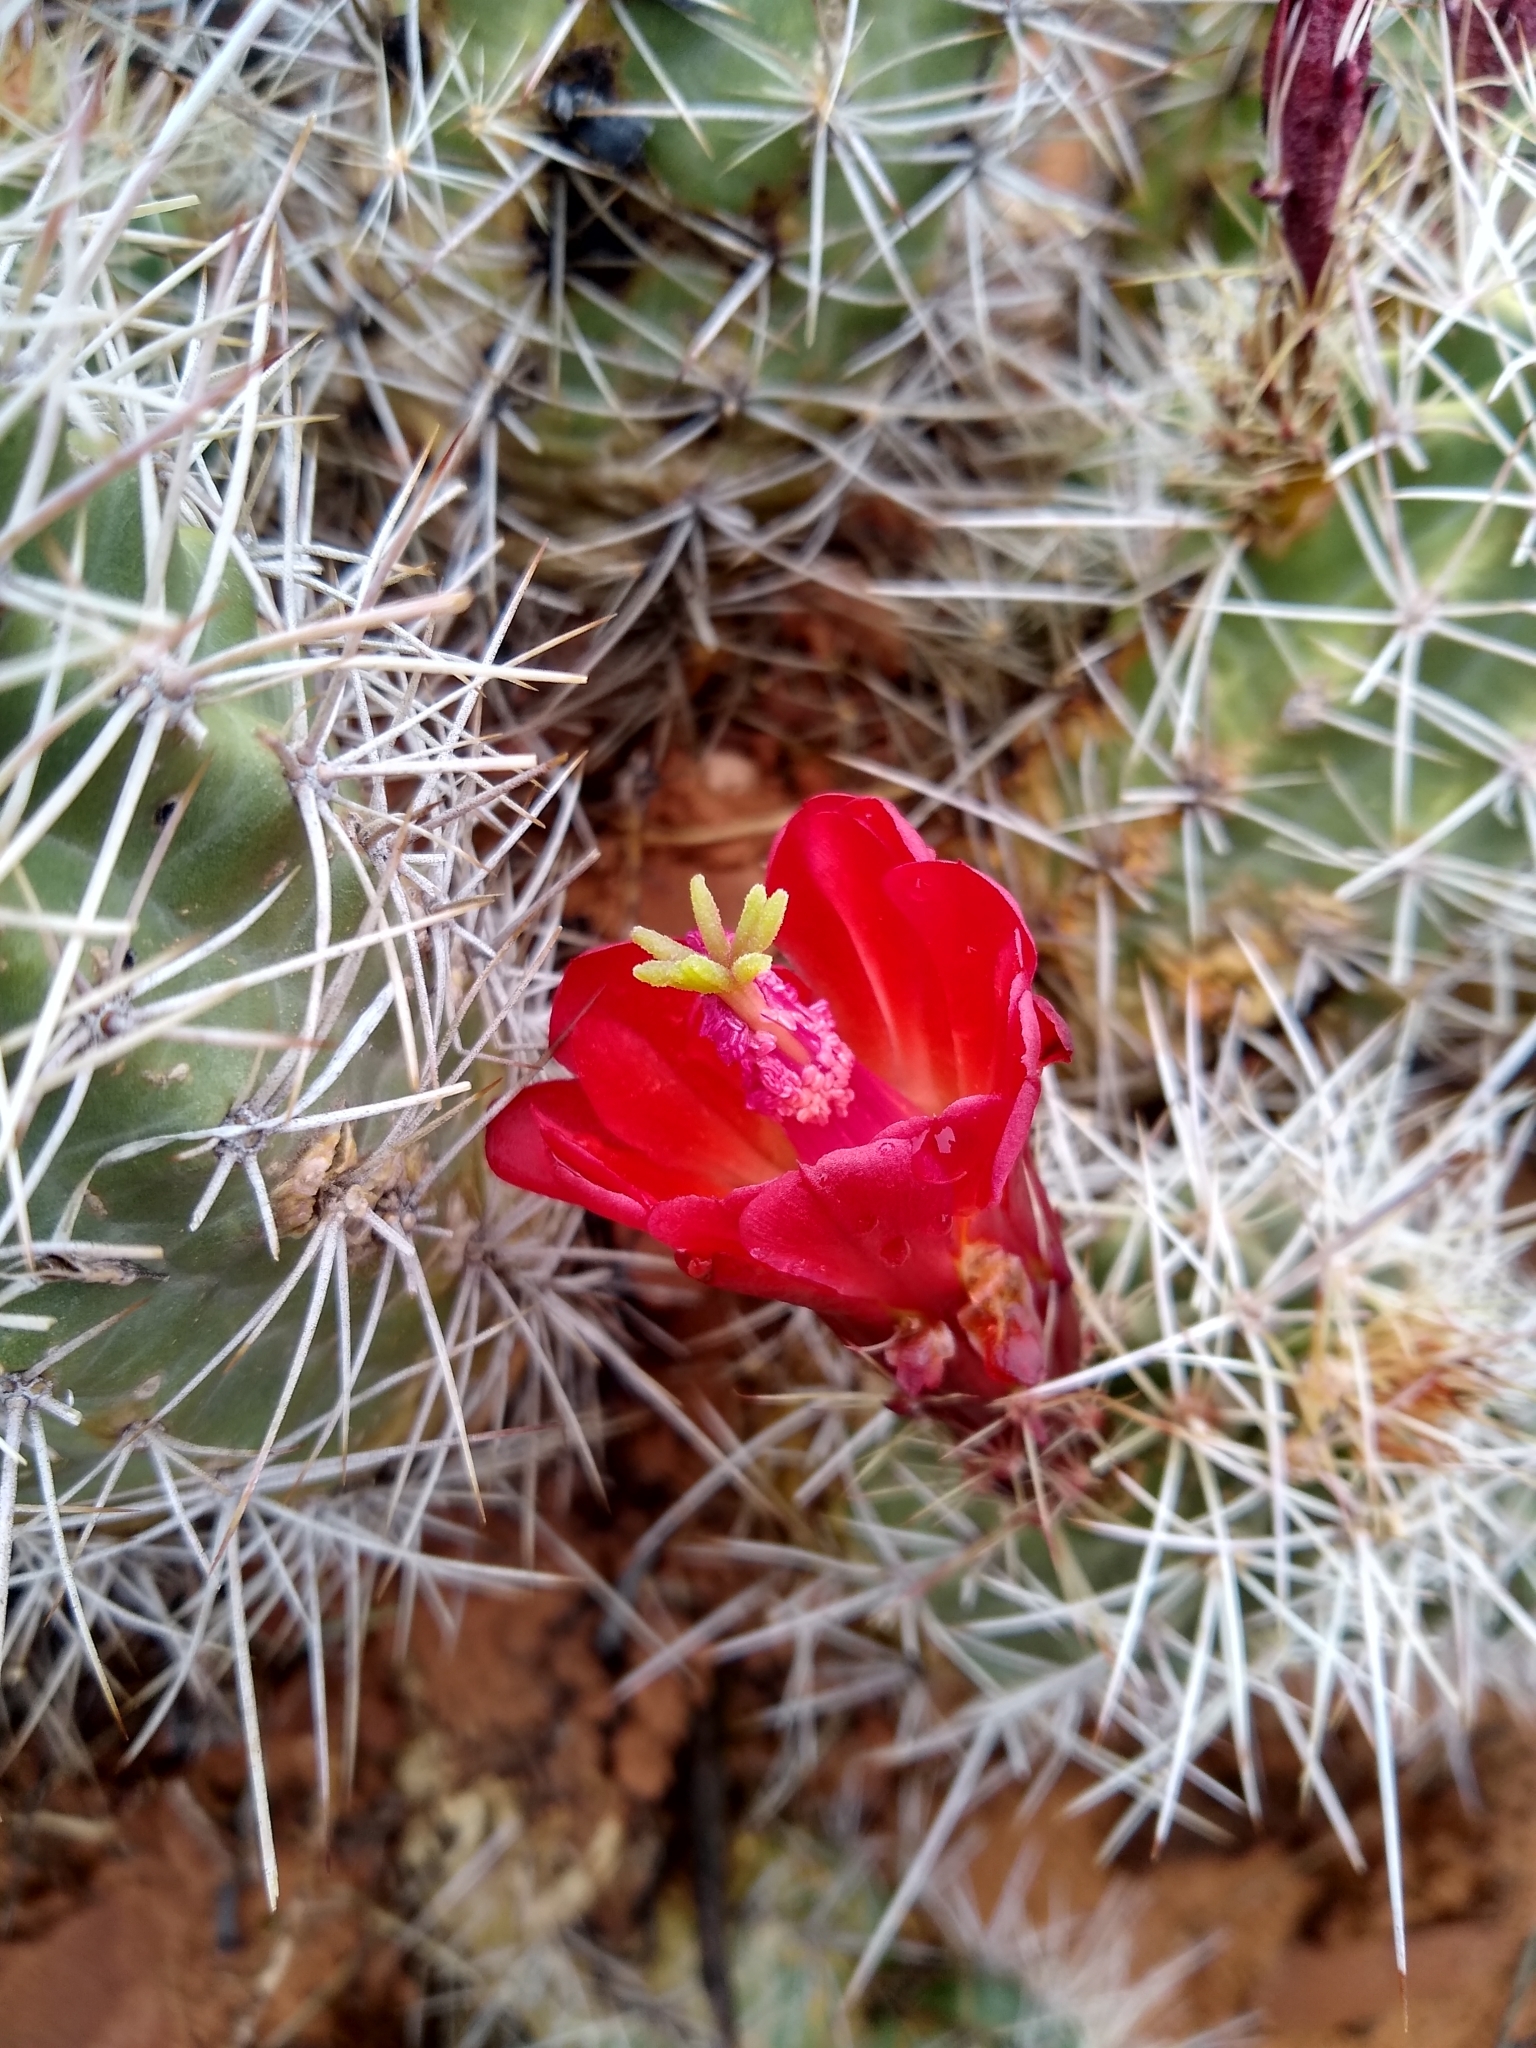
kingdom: Plantae
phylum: Tracheophyta
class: Magnoliopsida
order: Caryophyllales
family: Cactaceae
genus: Echinocereus
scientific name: Echinocereus triglochidiatus
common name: Claretcup hedgehog
